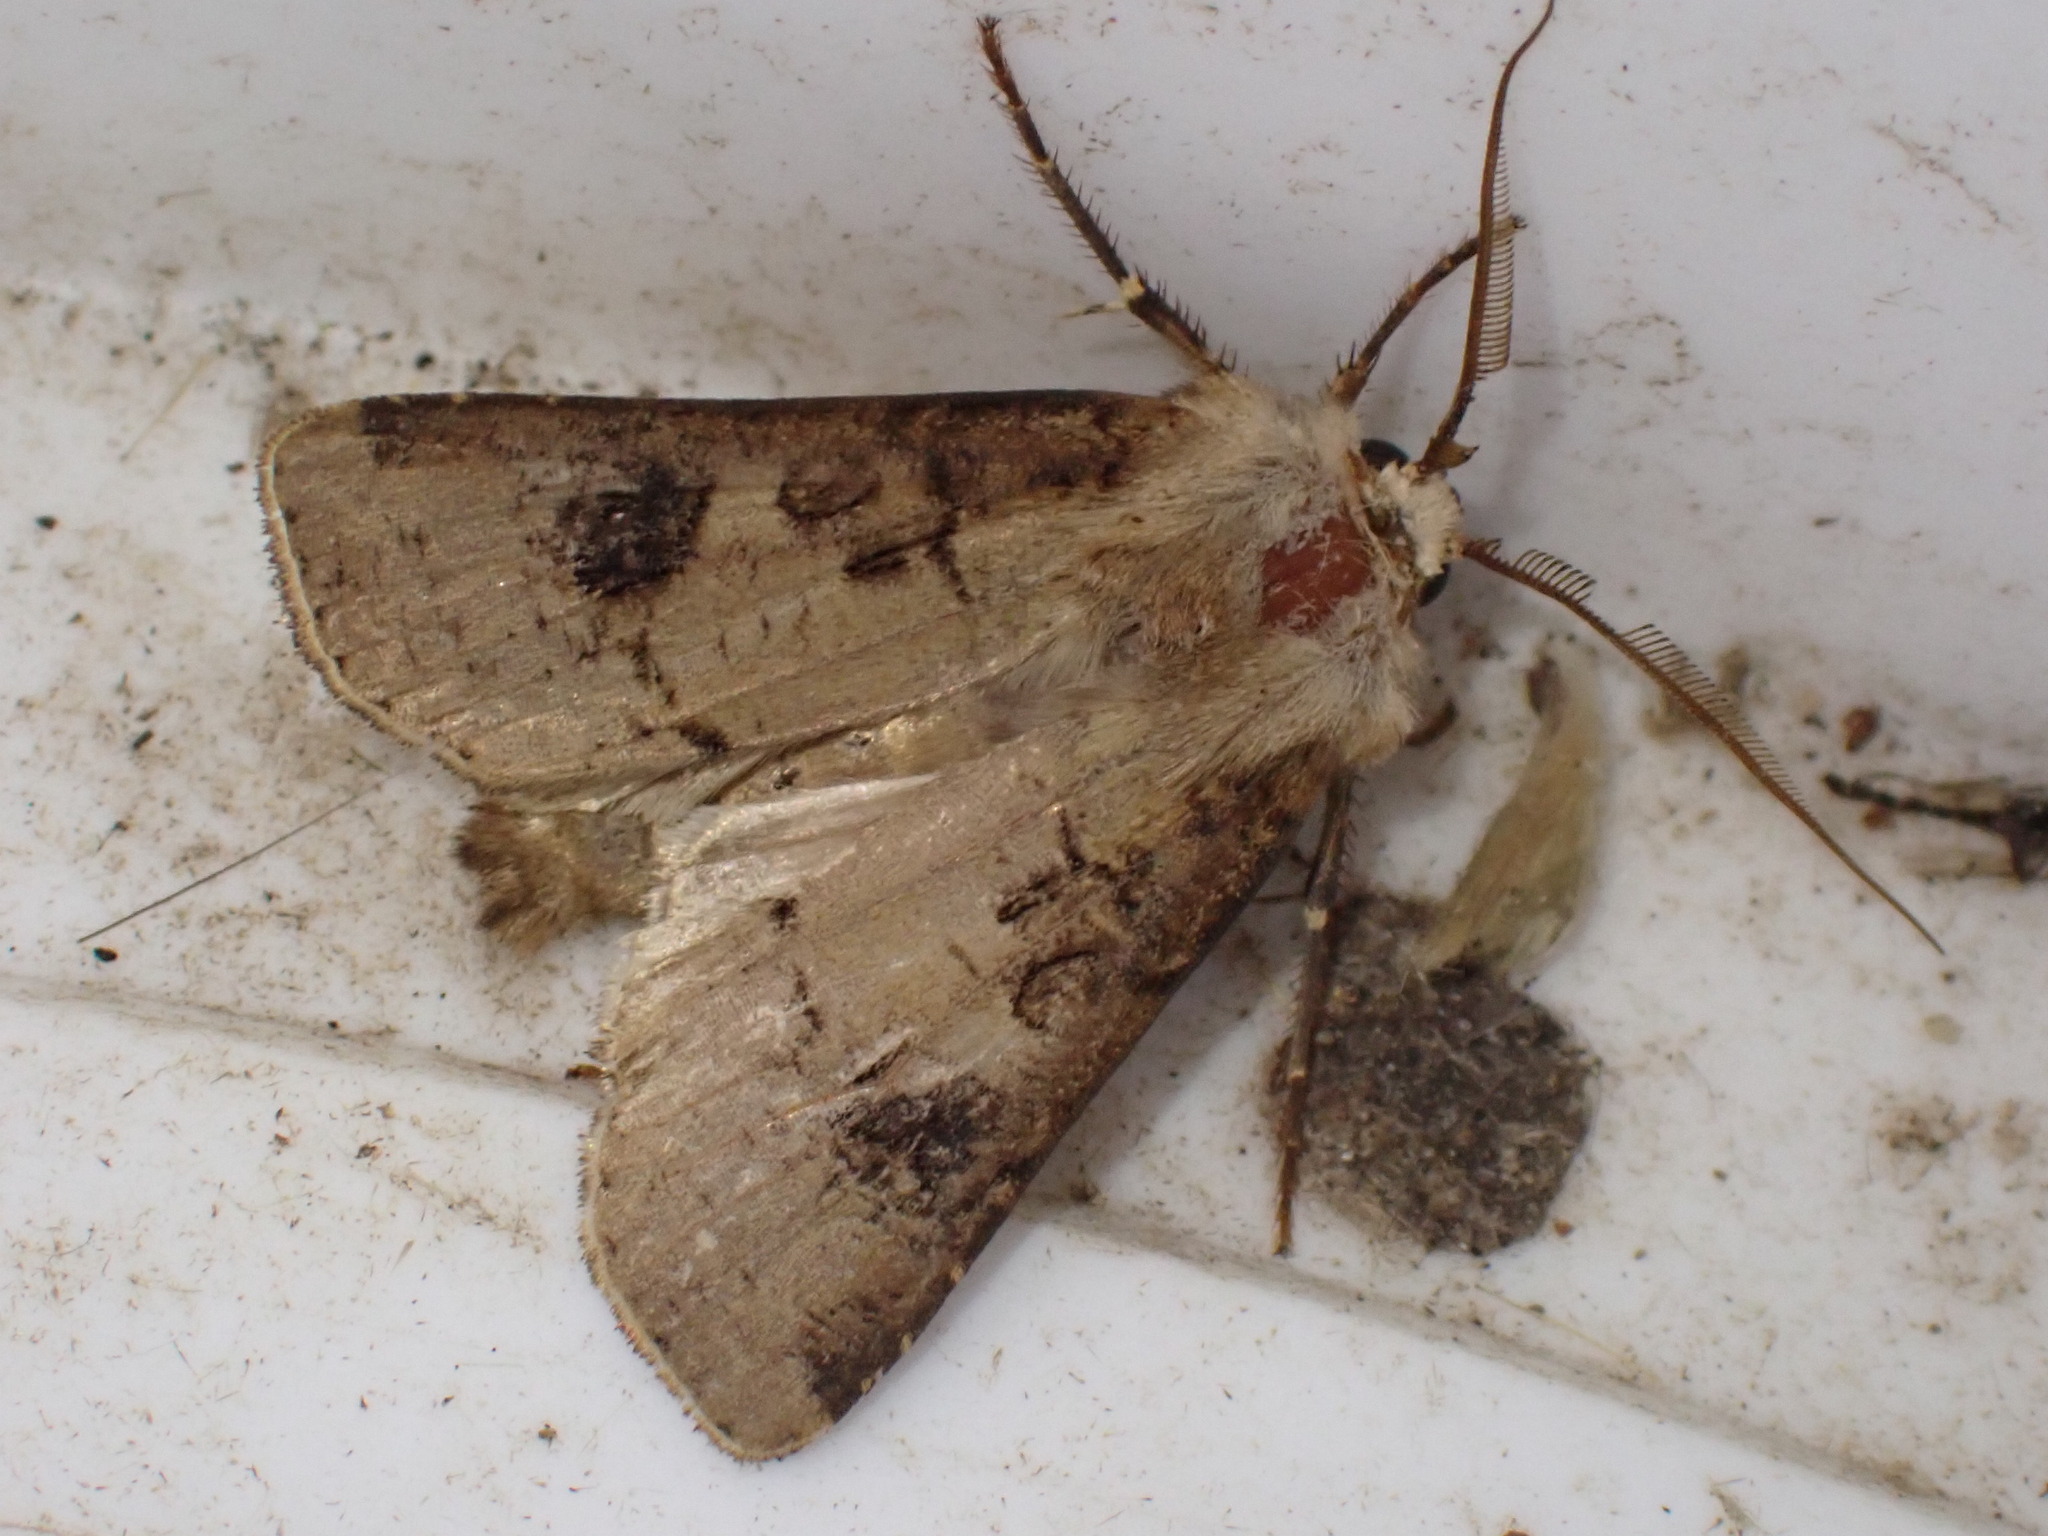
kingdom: Animalia
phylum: Arthropoda
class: Insecta
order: Lepidoptera
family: Noctuidae
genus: Agrotis
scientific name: Agrotis clavis
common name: Heart and club
